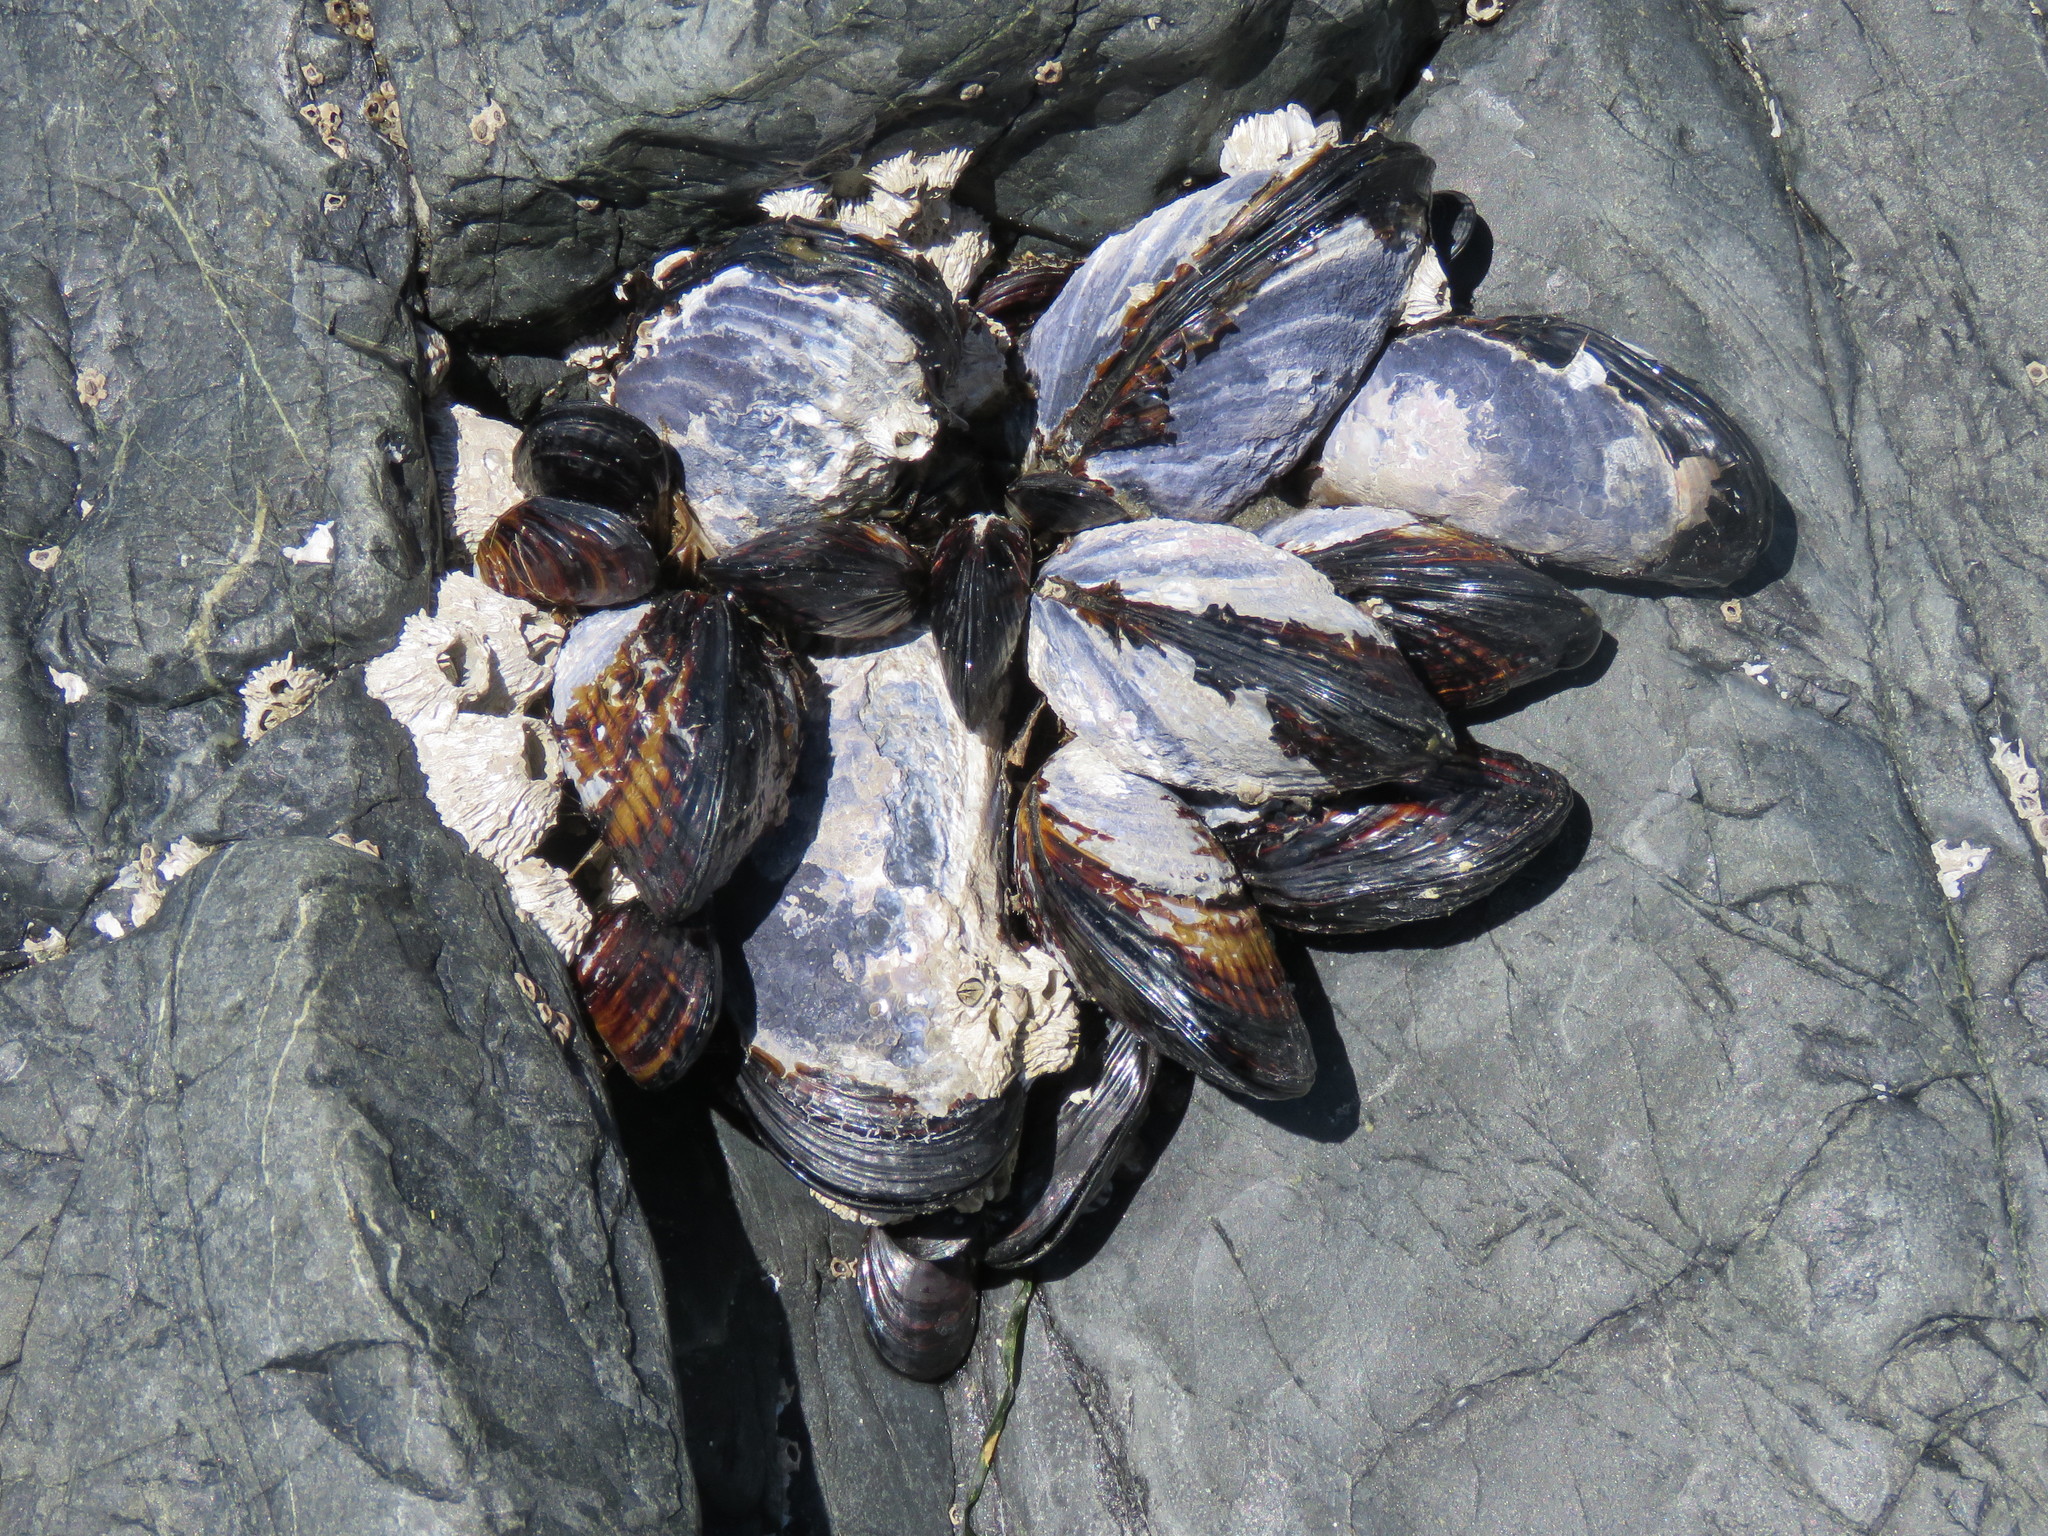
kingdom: Animalia
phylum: Mollusca
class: Bivalvia
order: Mytilida
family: Mytilidae
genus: Mytilus
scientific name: Mytilus californianus
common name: California mussel
